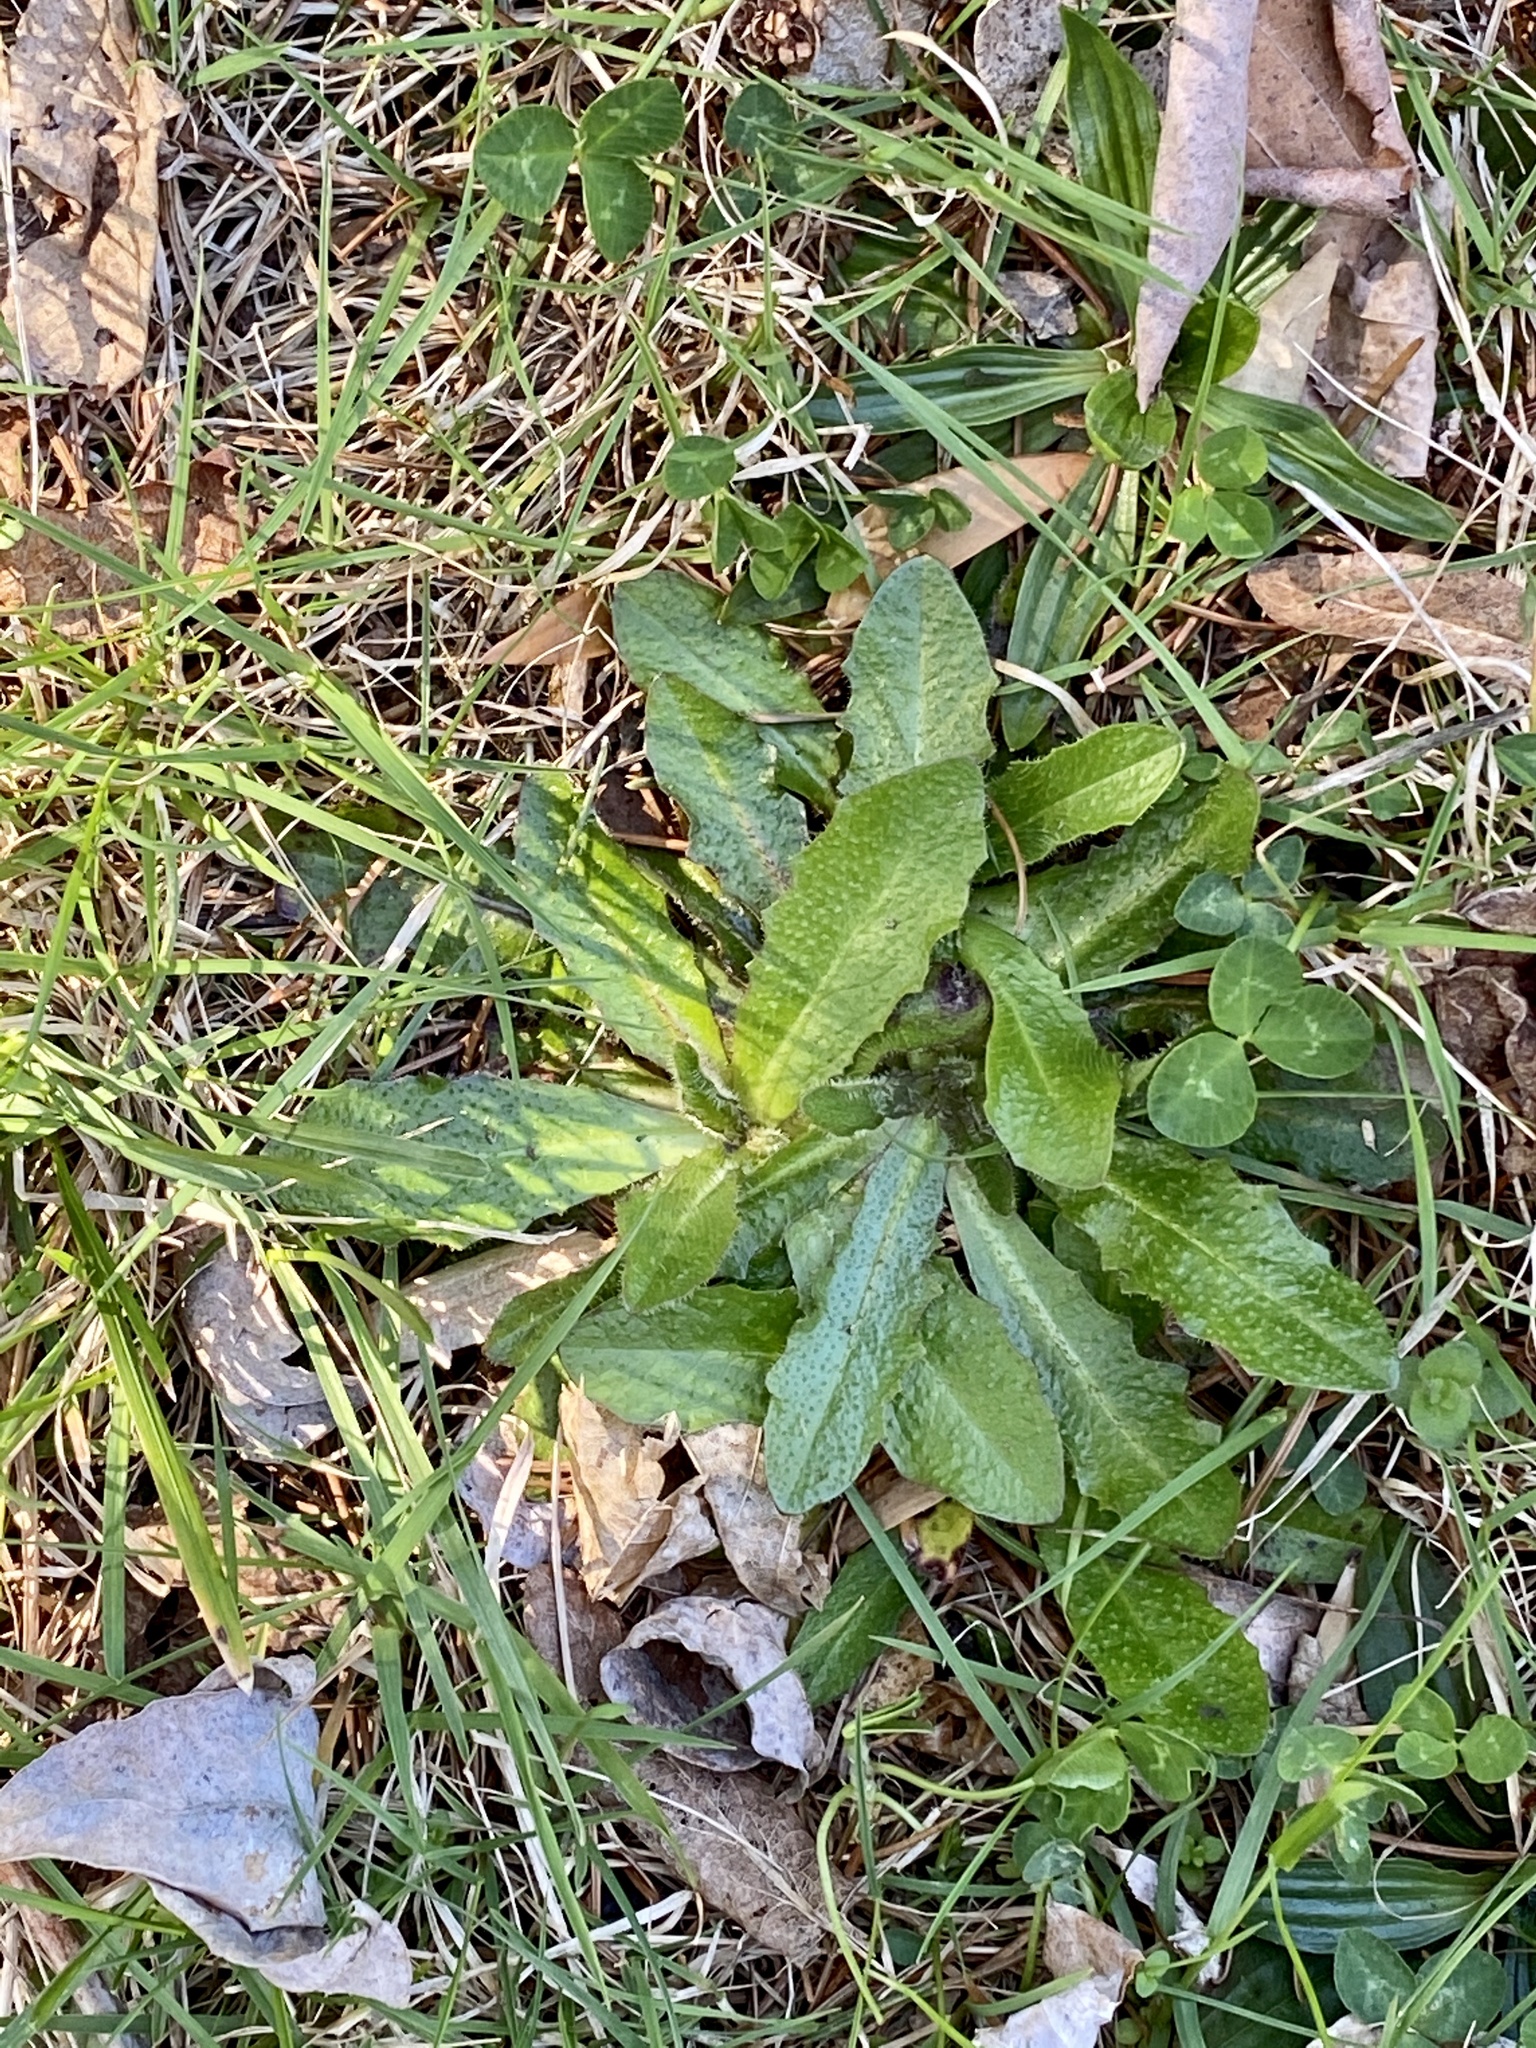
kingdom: Plantae
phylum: Tracheophyta
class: Magnoliopsida
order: Asterales
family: Asteraceae
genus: Hypochaeris
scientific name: Hypochaeris radicata
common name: Flatweed
